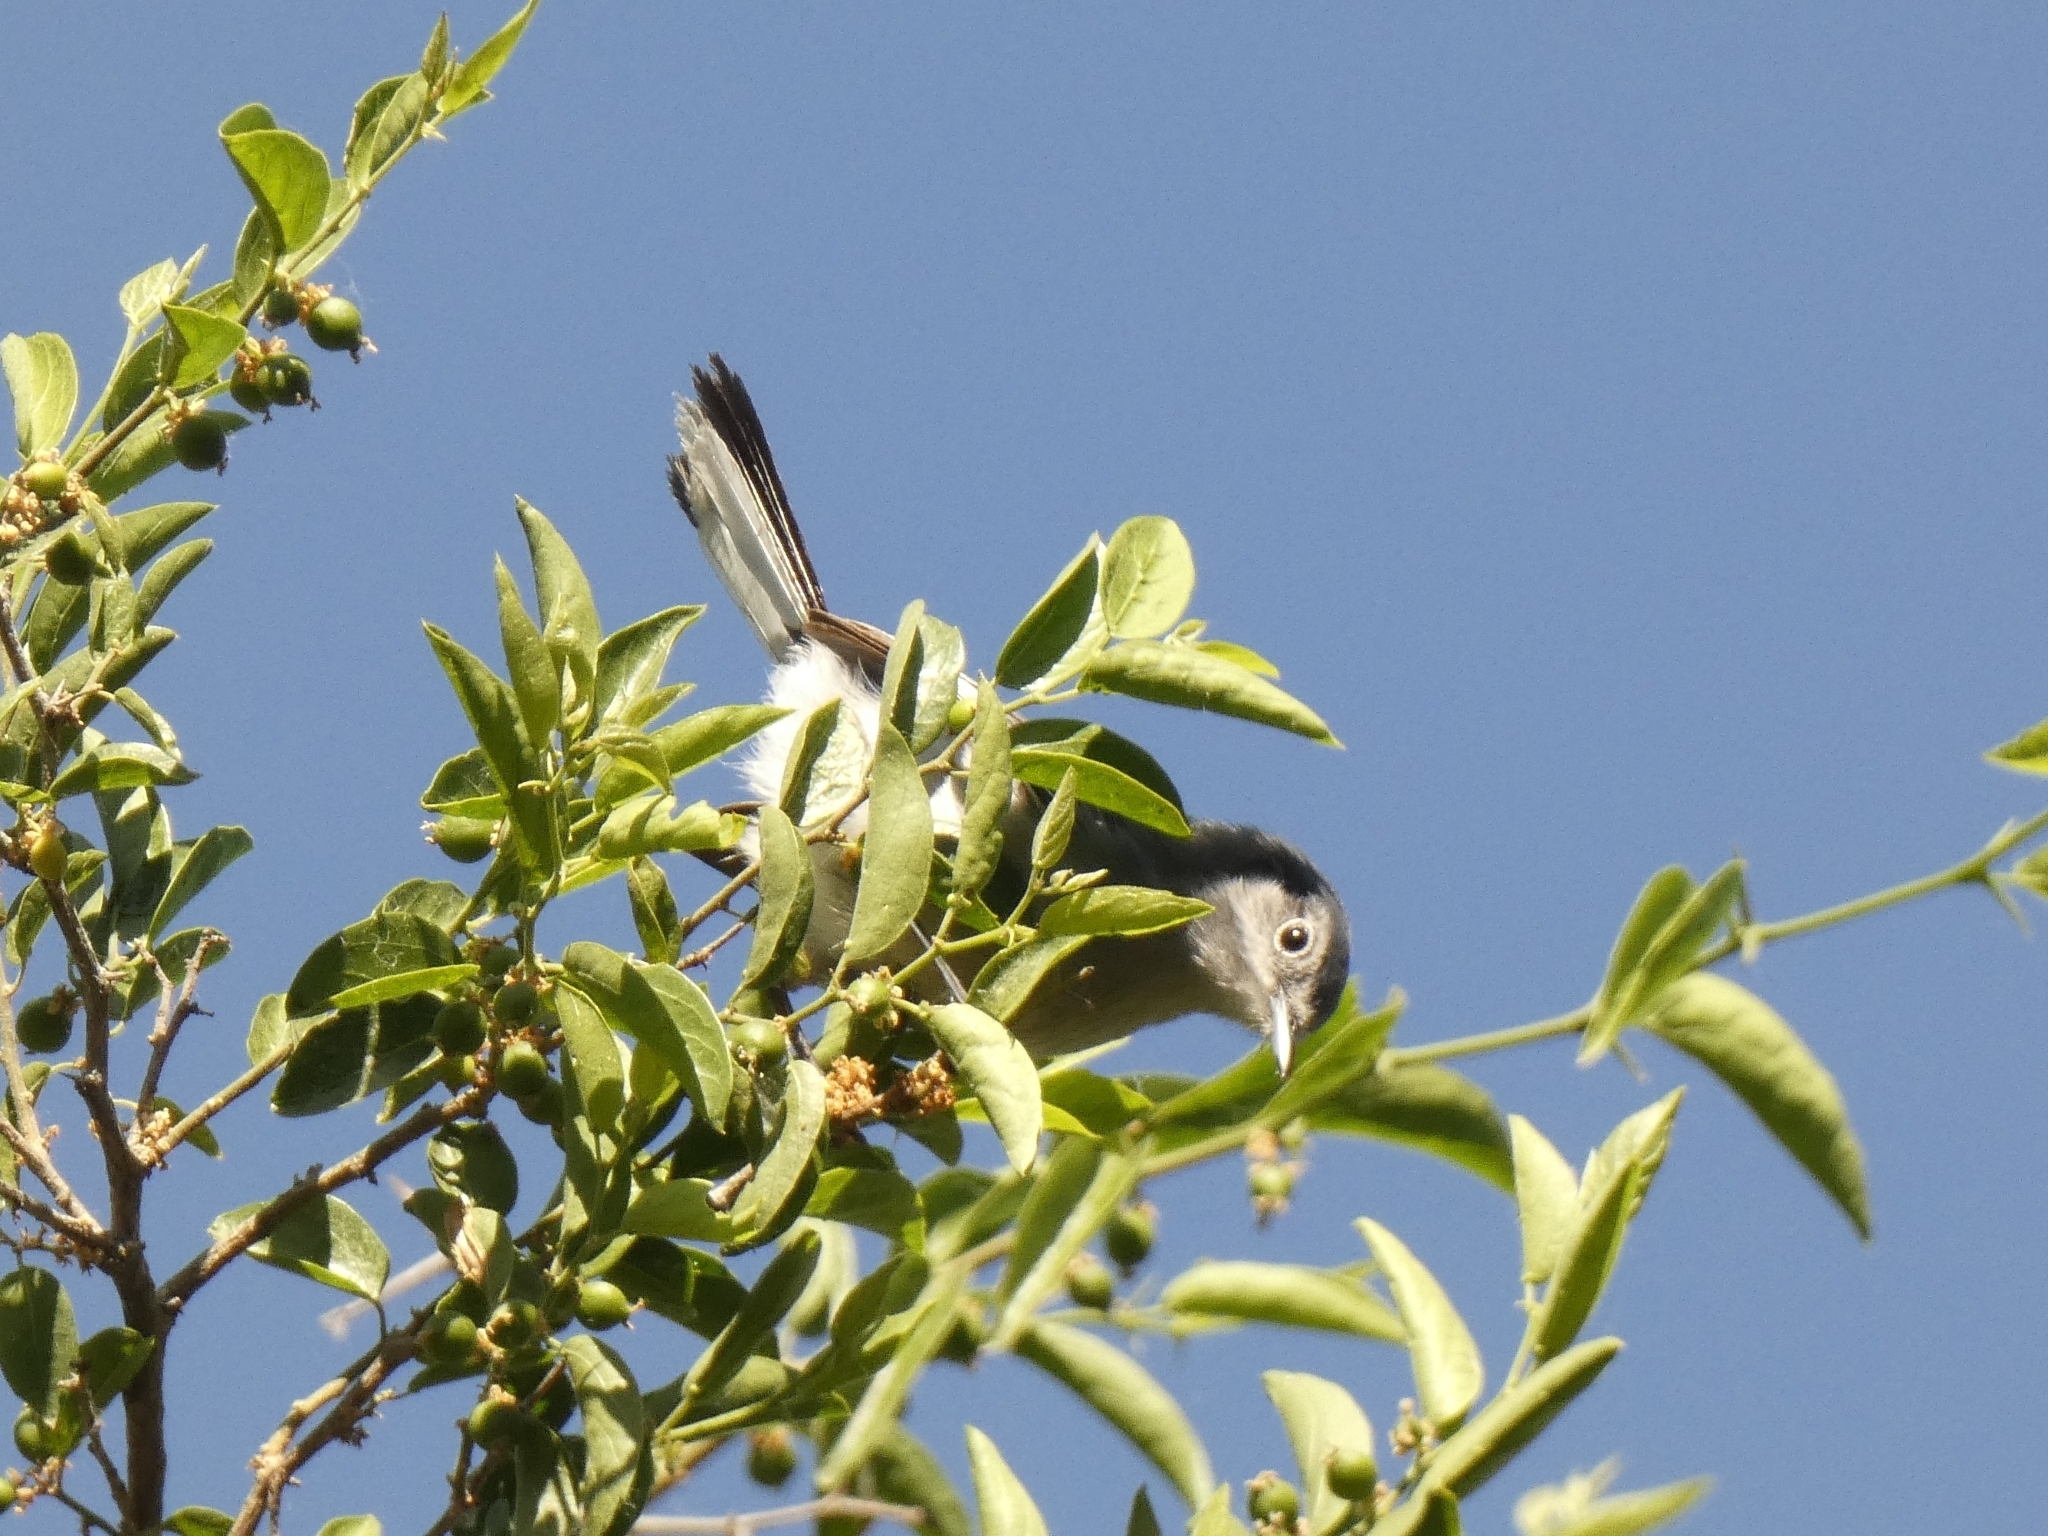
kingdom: Animalia
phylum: Chordata
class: Aves
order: Passeriformes
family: Polioptilidae
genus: Polioptila
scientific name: Polioptila dumicola
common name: Masked gnatcatcher
